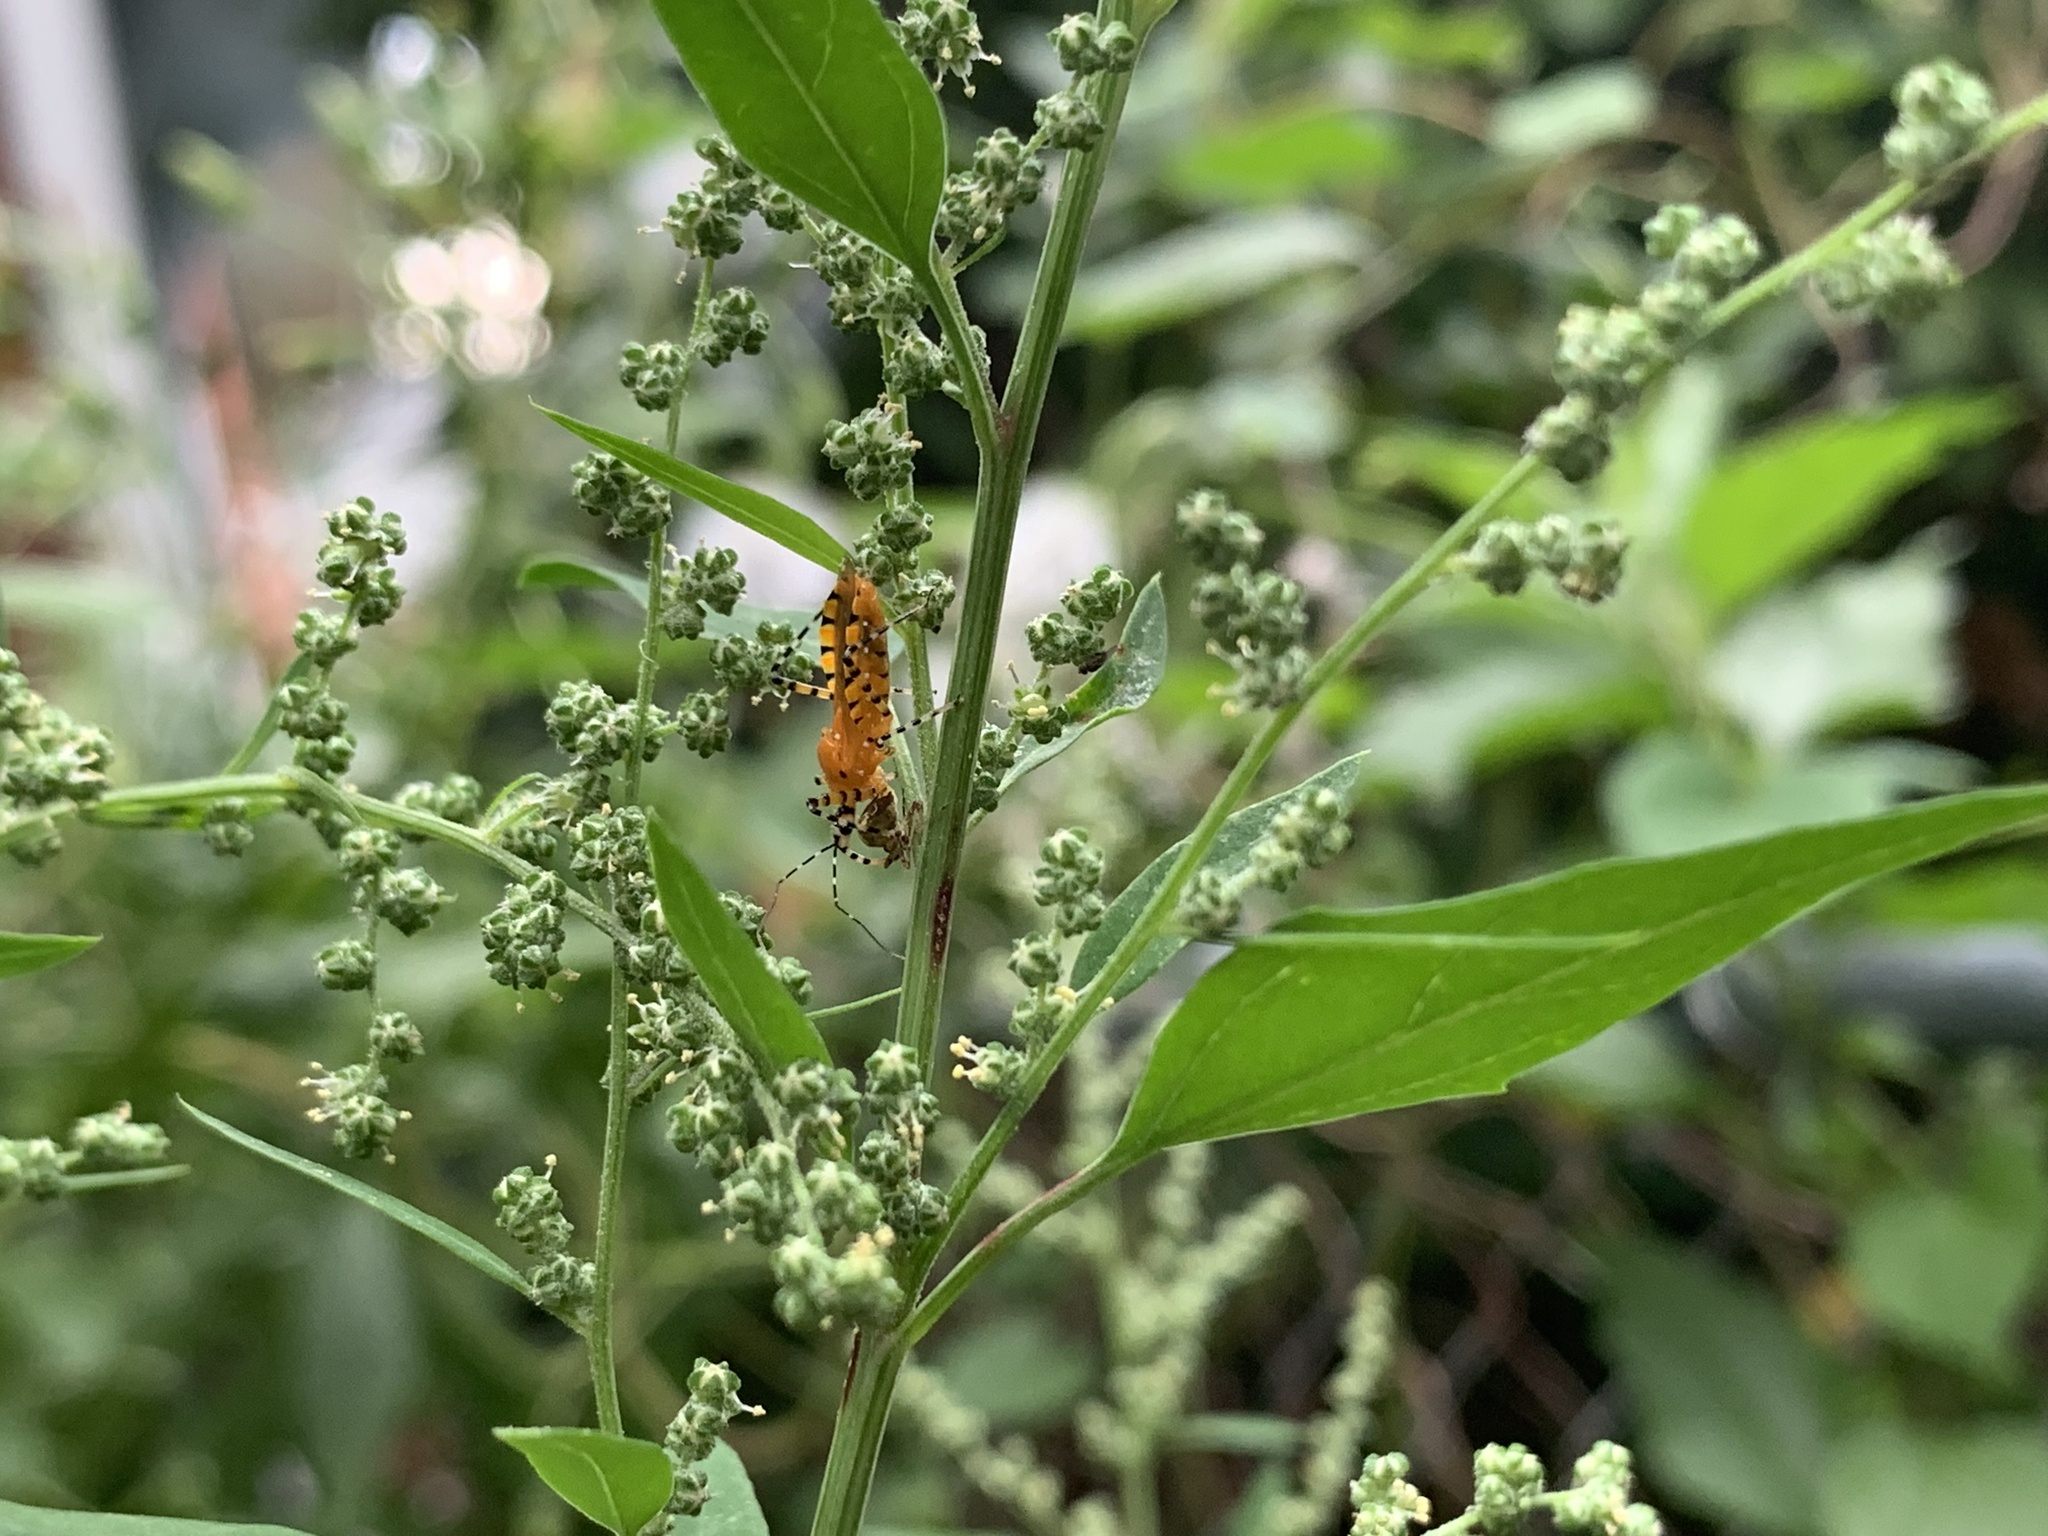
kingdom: Animalia
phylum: Arthropoda
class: Insecta
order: Hemiptera
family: Reduviidae
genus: Pselliopus
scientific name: Pselliopus barberi
